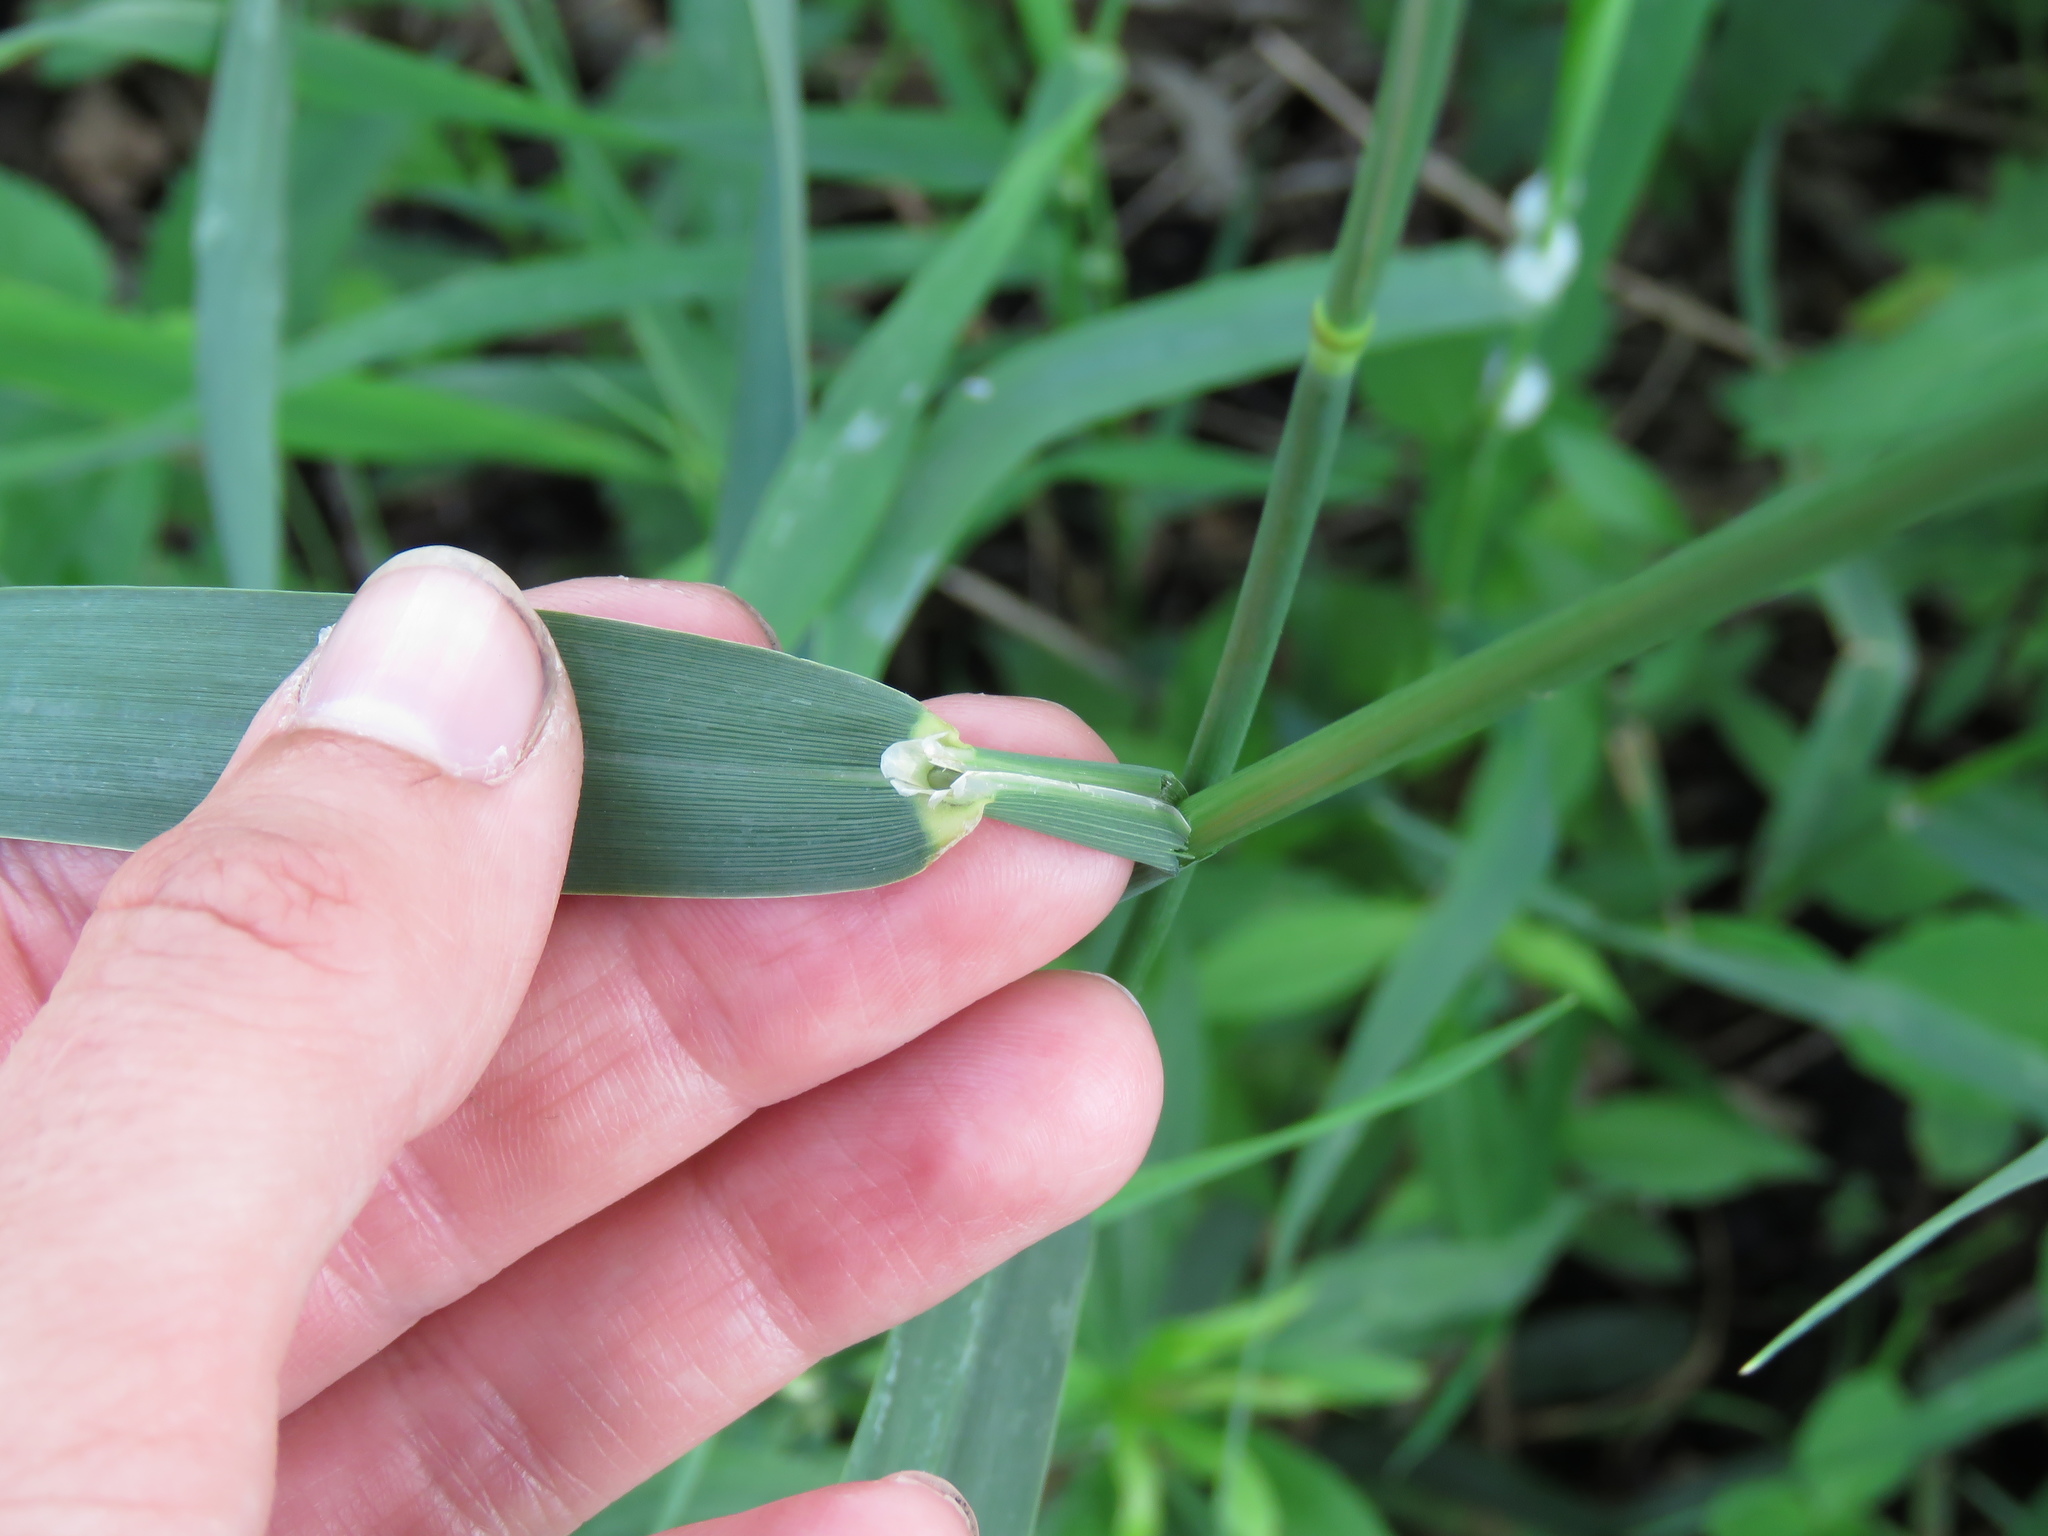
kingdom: Plantae
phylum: Tracheophyta
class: Liliopsida
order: Poales
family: Poaceae
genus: Phalaris
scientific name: Phalaris arundinacea
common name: Reed canary-grass
